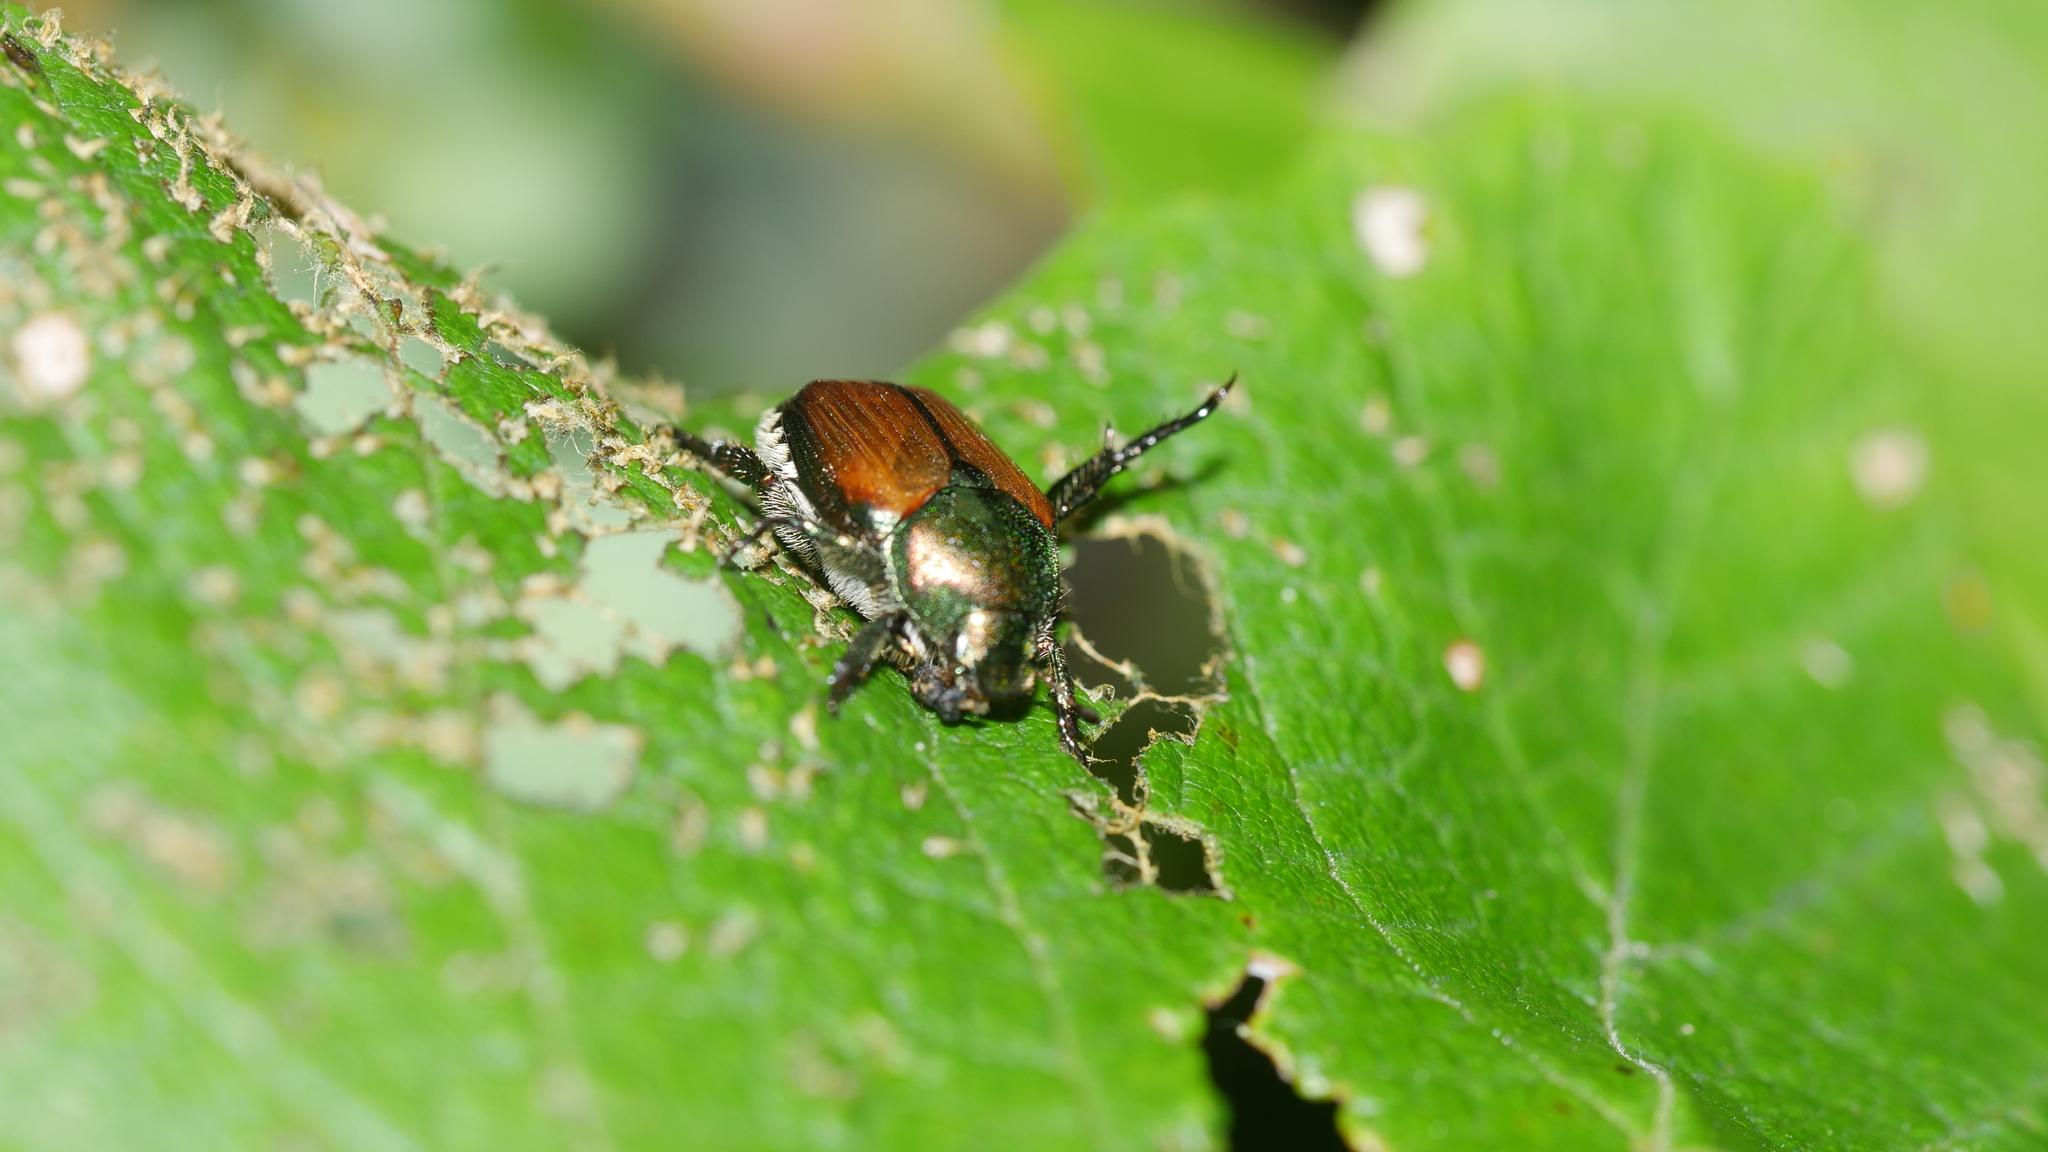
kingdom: Animalia
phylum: Arthropoda
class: Insecta
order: Coleoptera
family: Scarabaeidae
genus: Popillia
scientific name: Popillia japonica
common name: Japanese beetle
